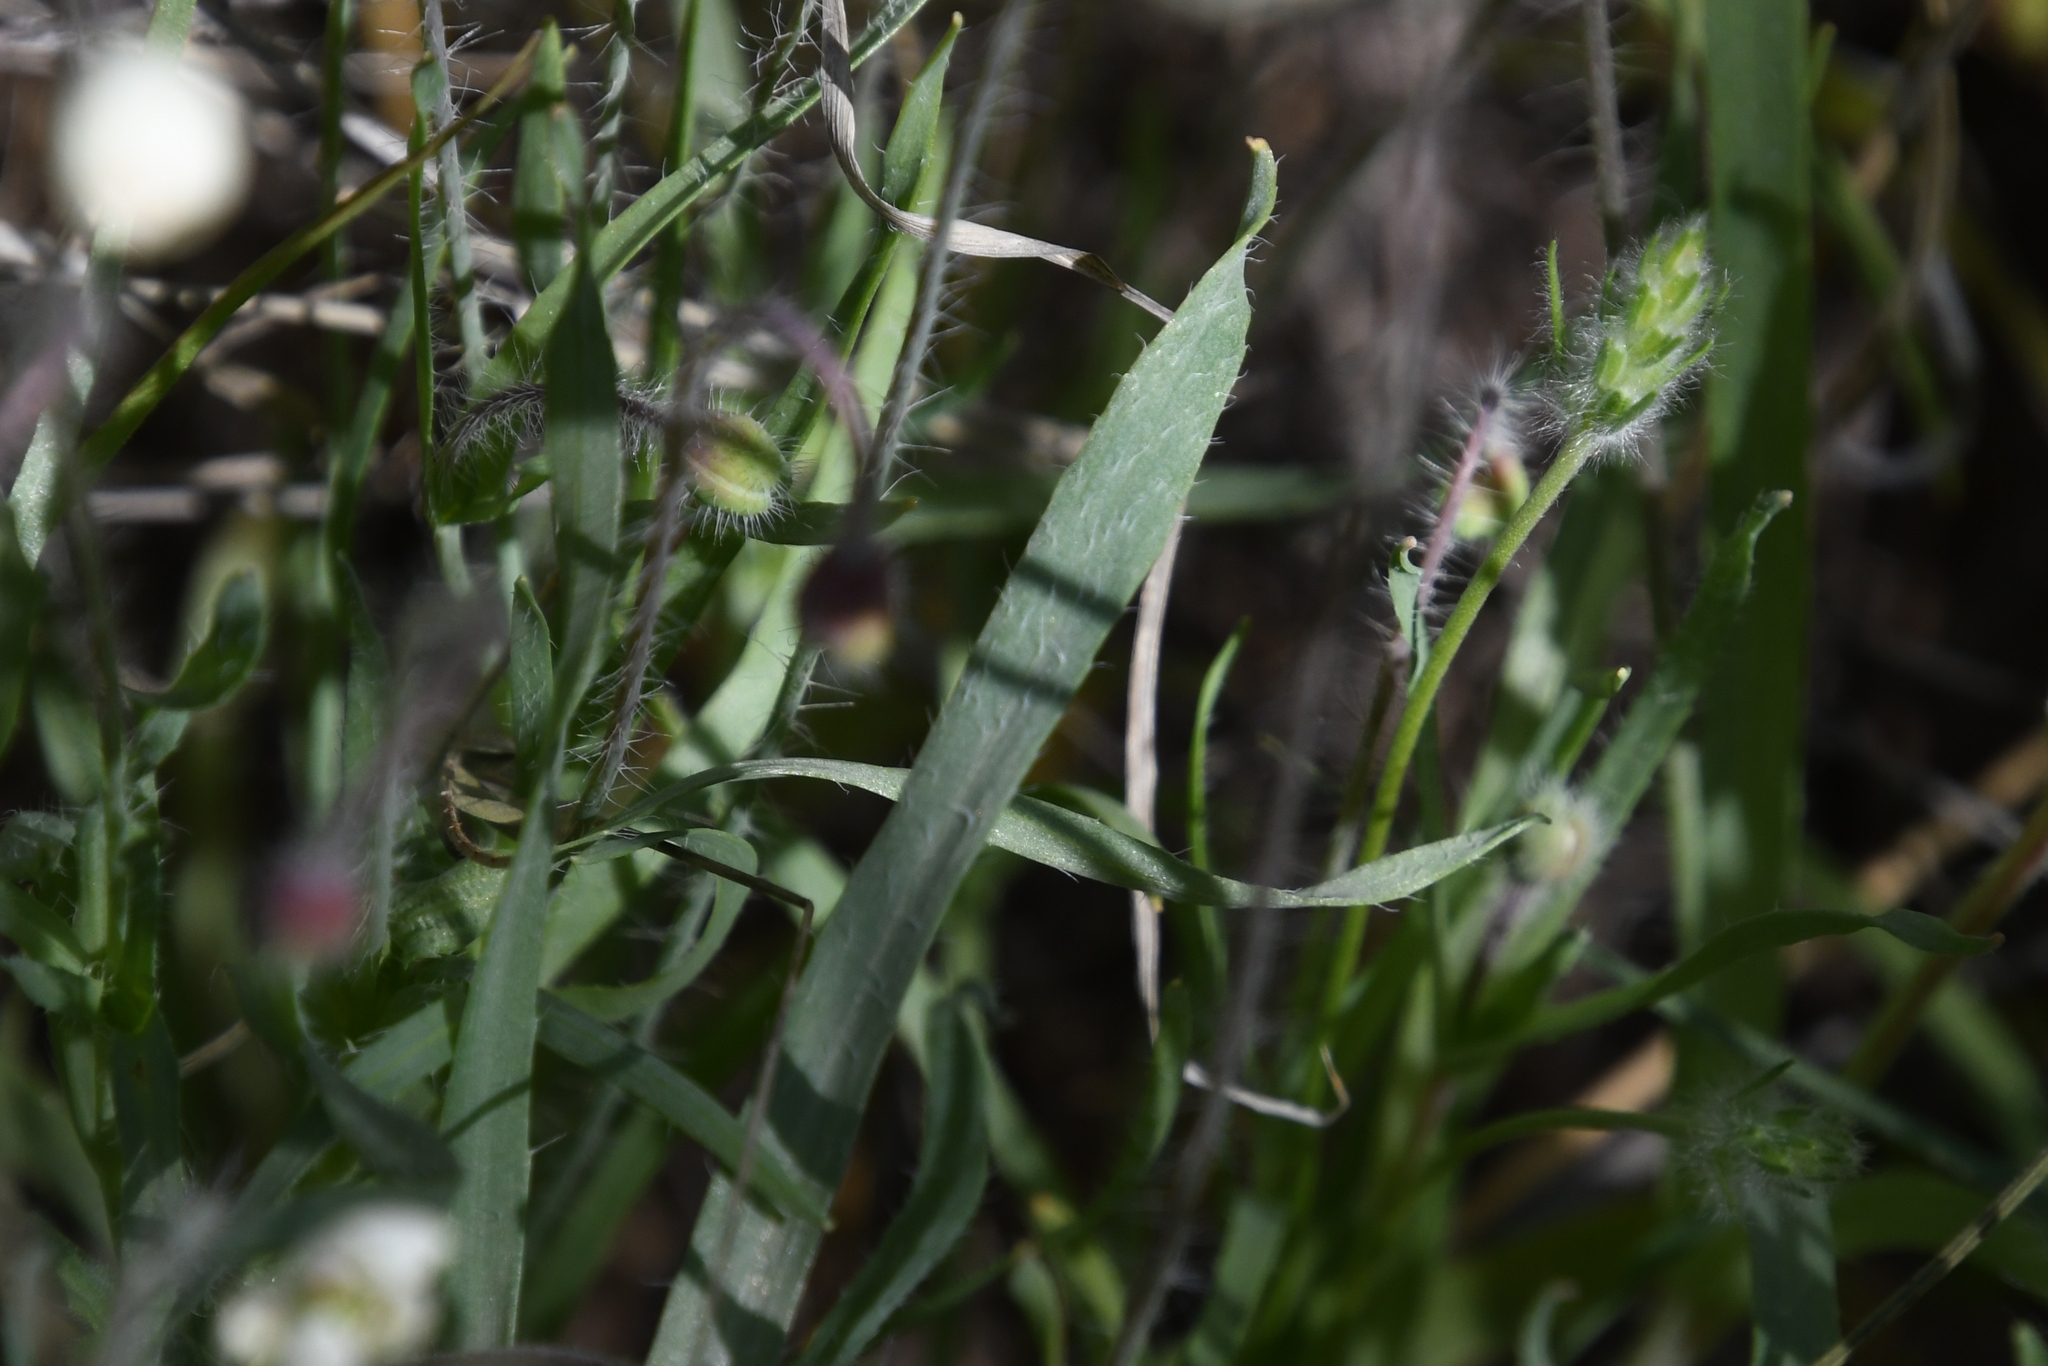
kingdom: Plantae
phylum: Tracheophyta
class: Magnoliopsida
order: Ranunculales
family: Papaveraceae
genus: Platystemon
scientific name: Platystemon californicus
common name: Cream-cups
